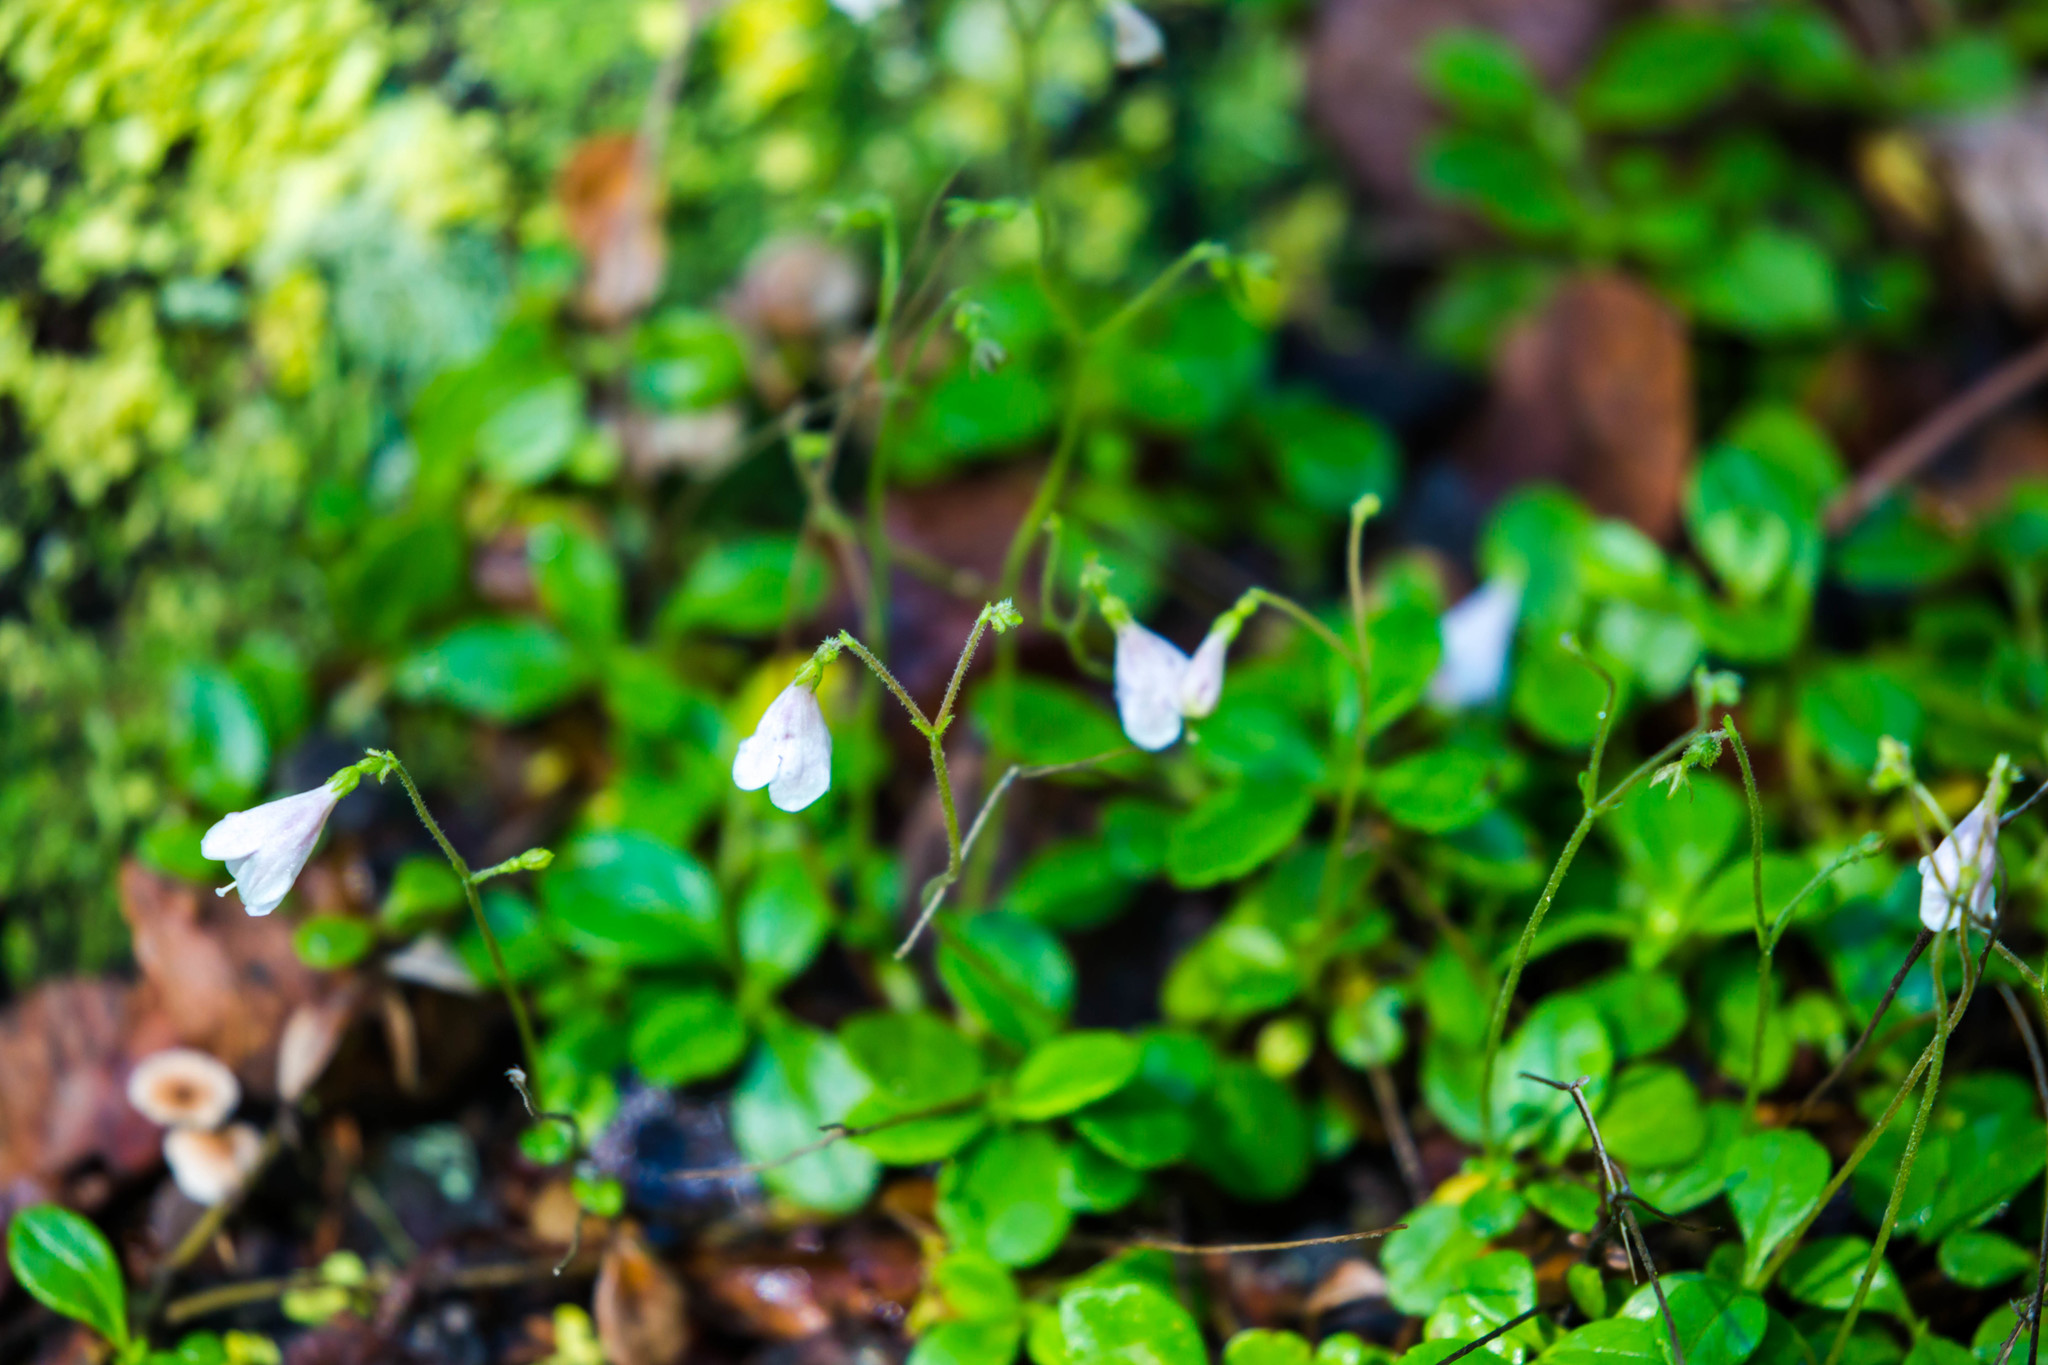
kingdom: Plantae
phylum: Tracheophyta
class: Magnoliopsida
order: Dipsacales
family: Caprifoliaceae
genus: Linnaea
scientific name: Linnaea borealis
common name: Twinflower
